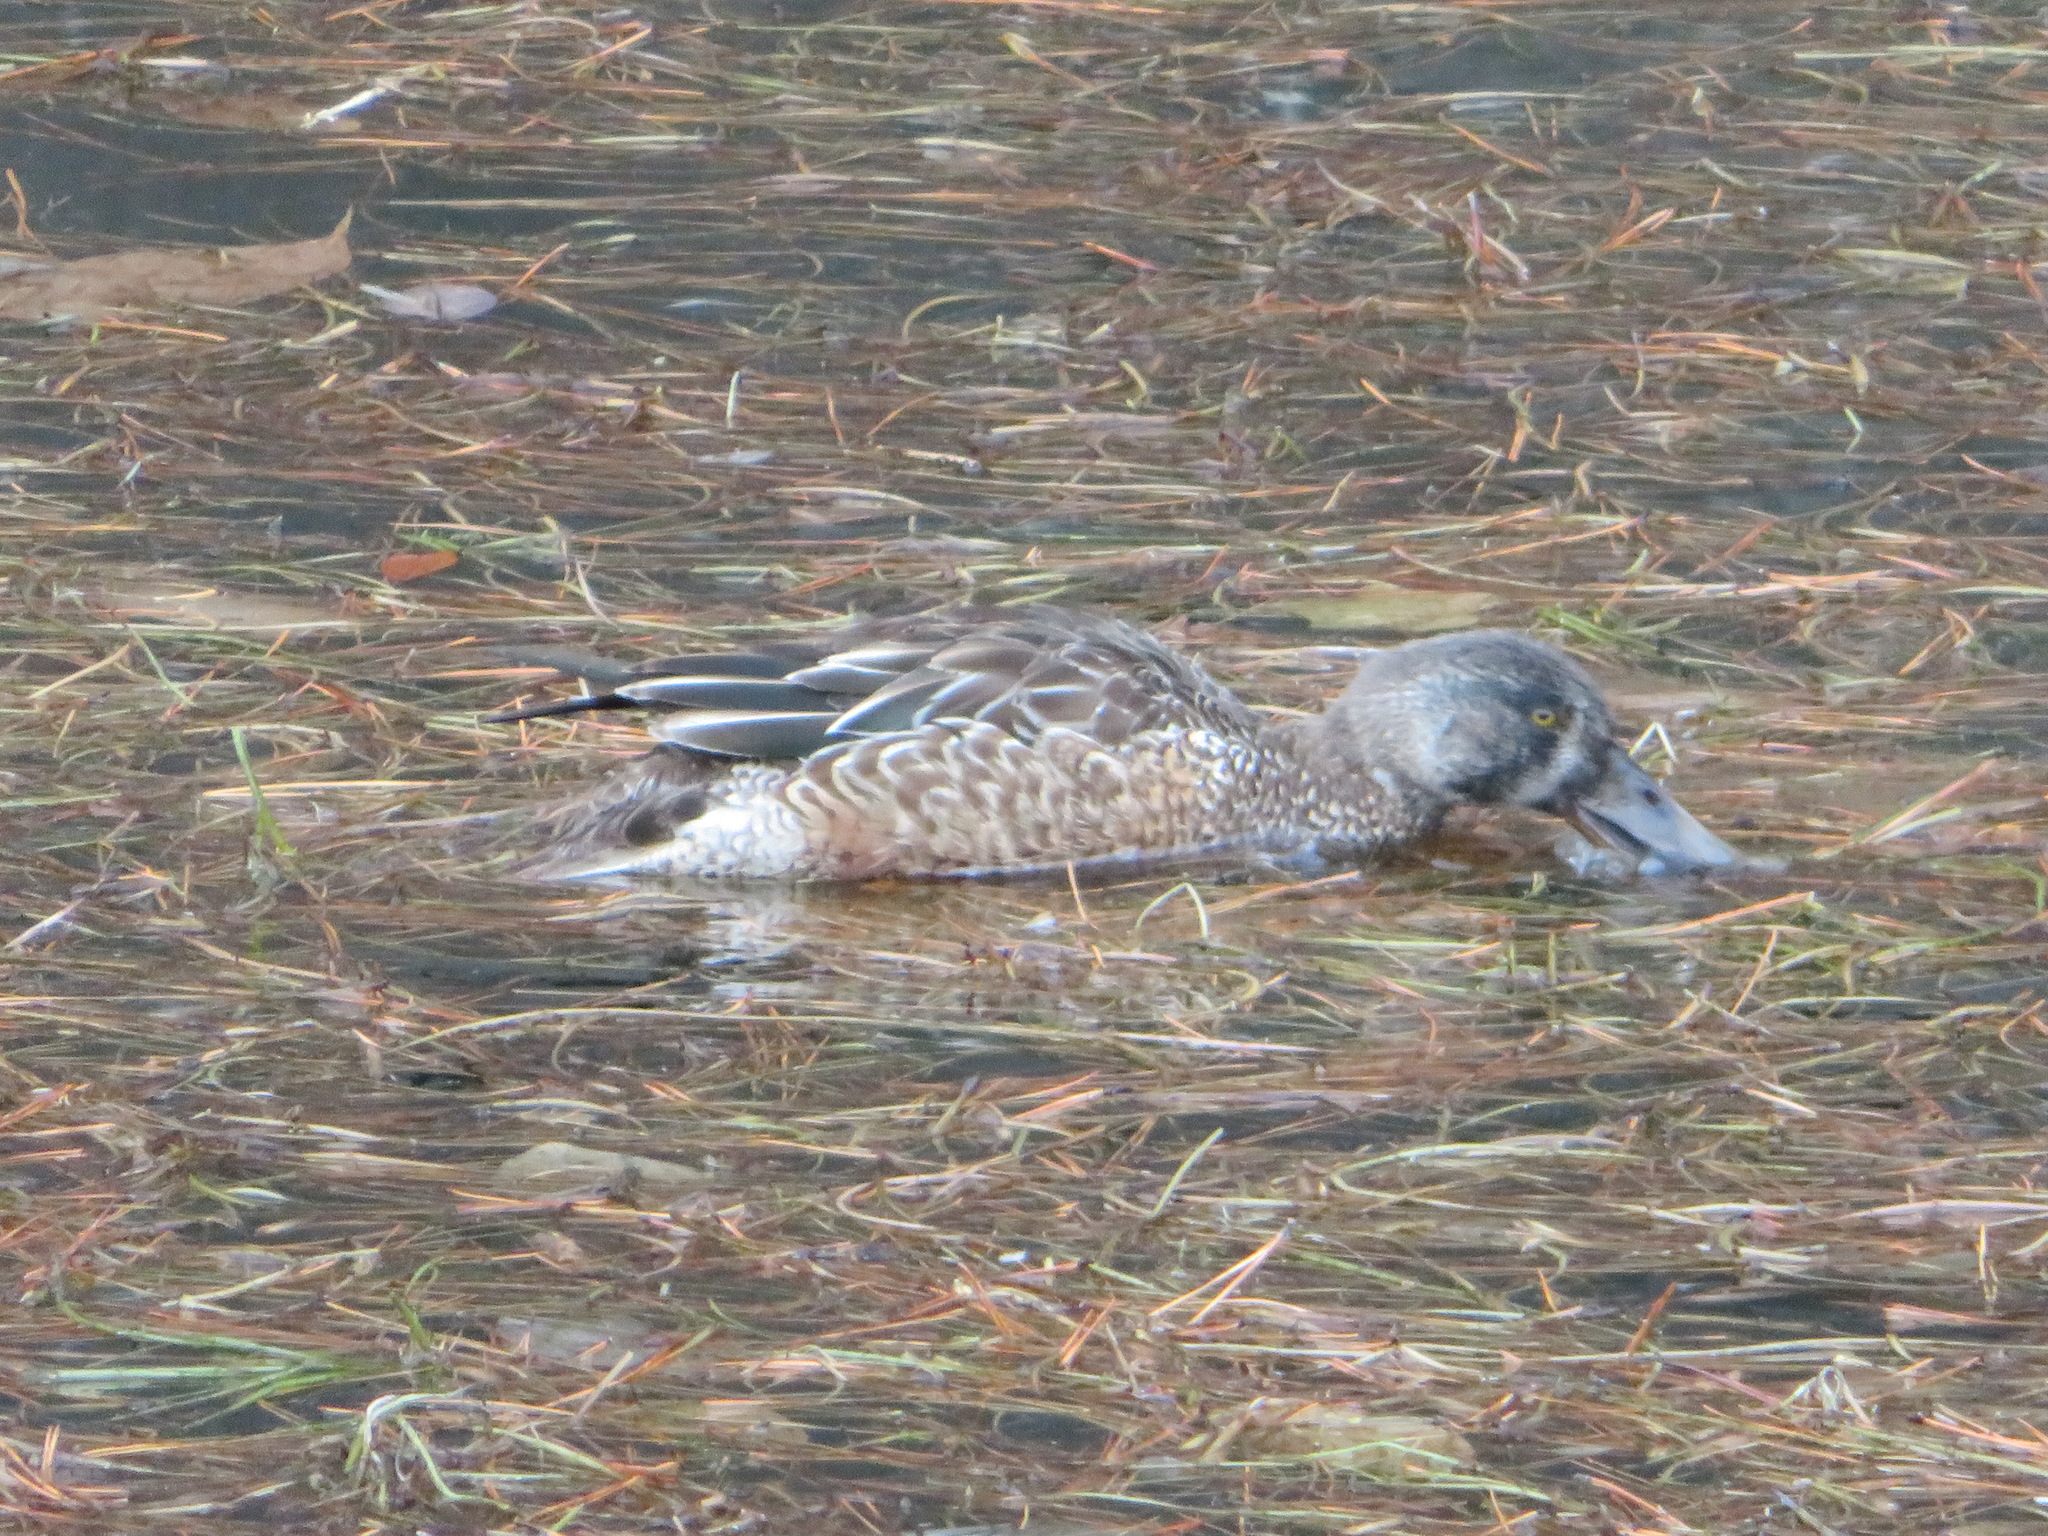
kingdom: Animalia
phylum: Chordata
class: Aves
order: Anseriformes
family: Anatidae
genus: Spatula
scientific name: Spatula clypeata
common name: Northern shoveler
